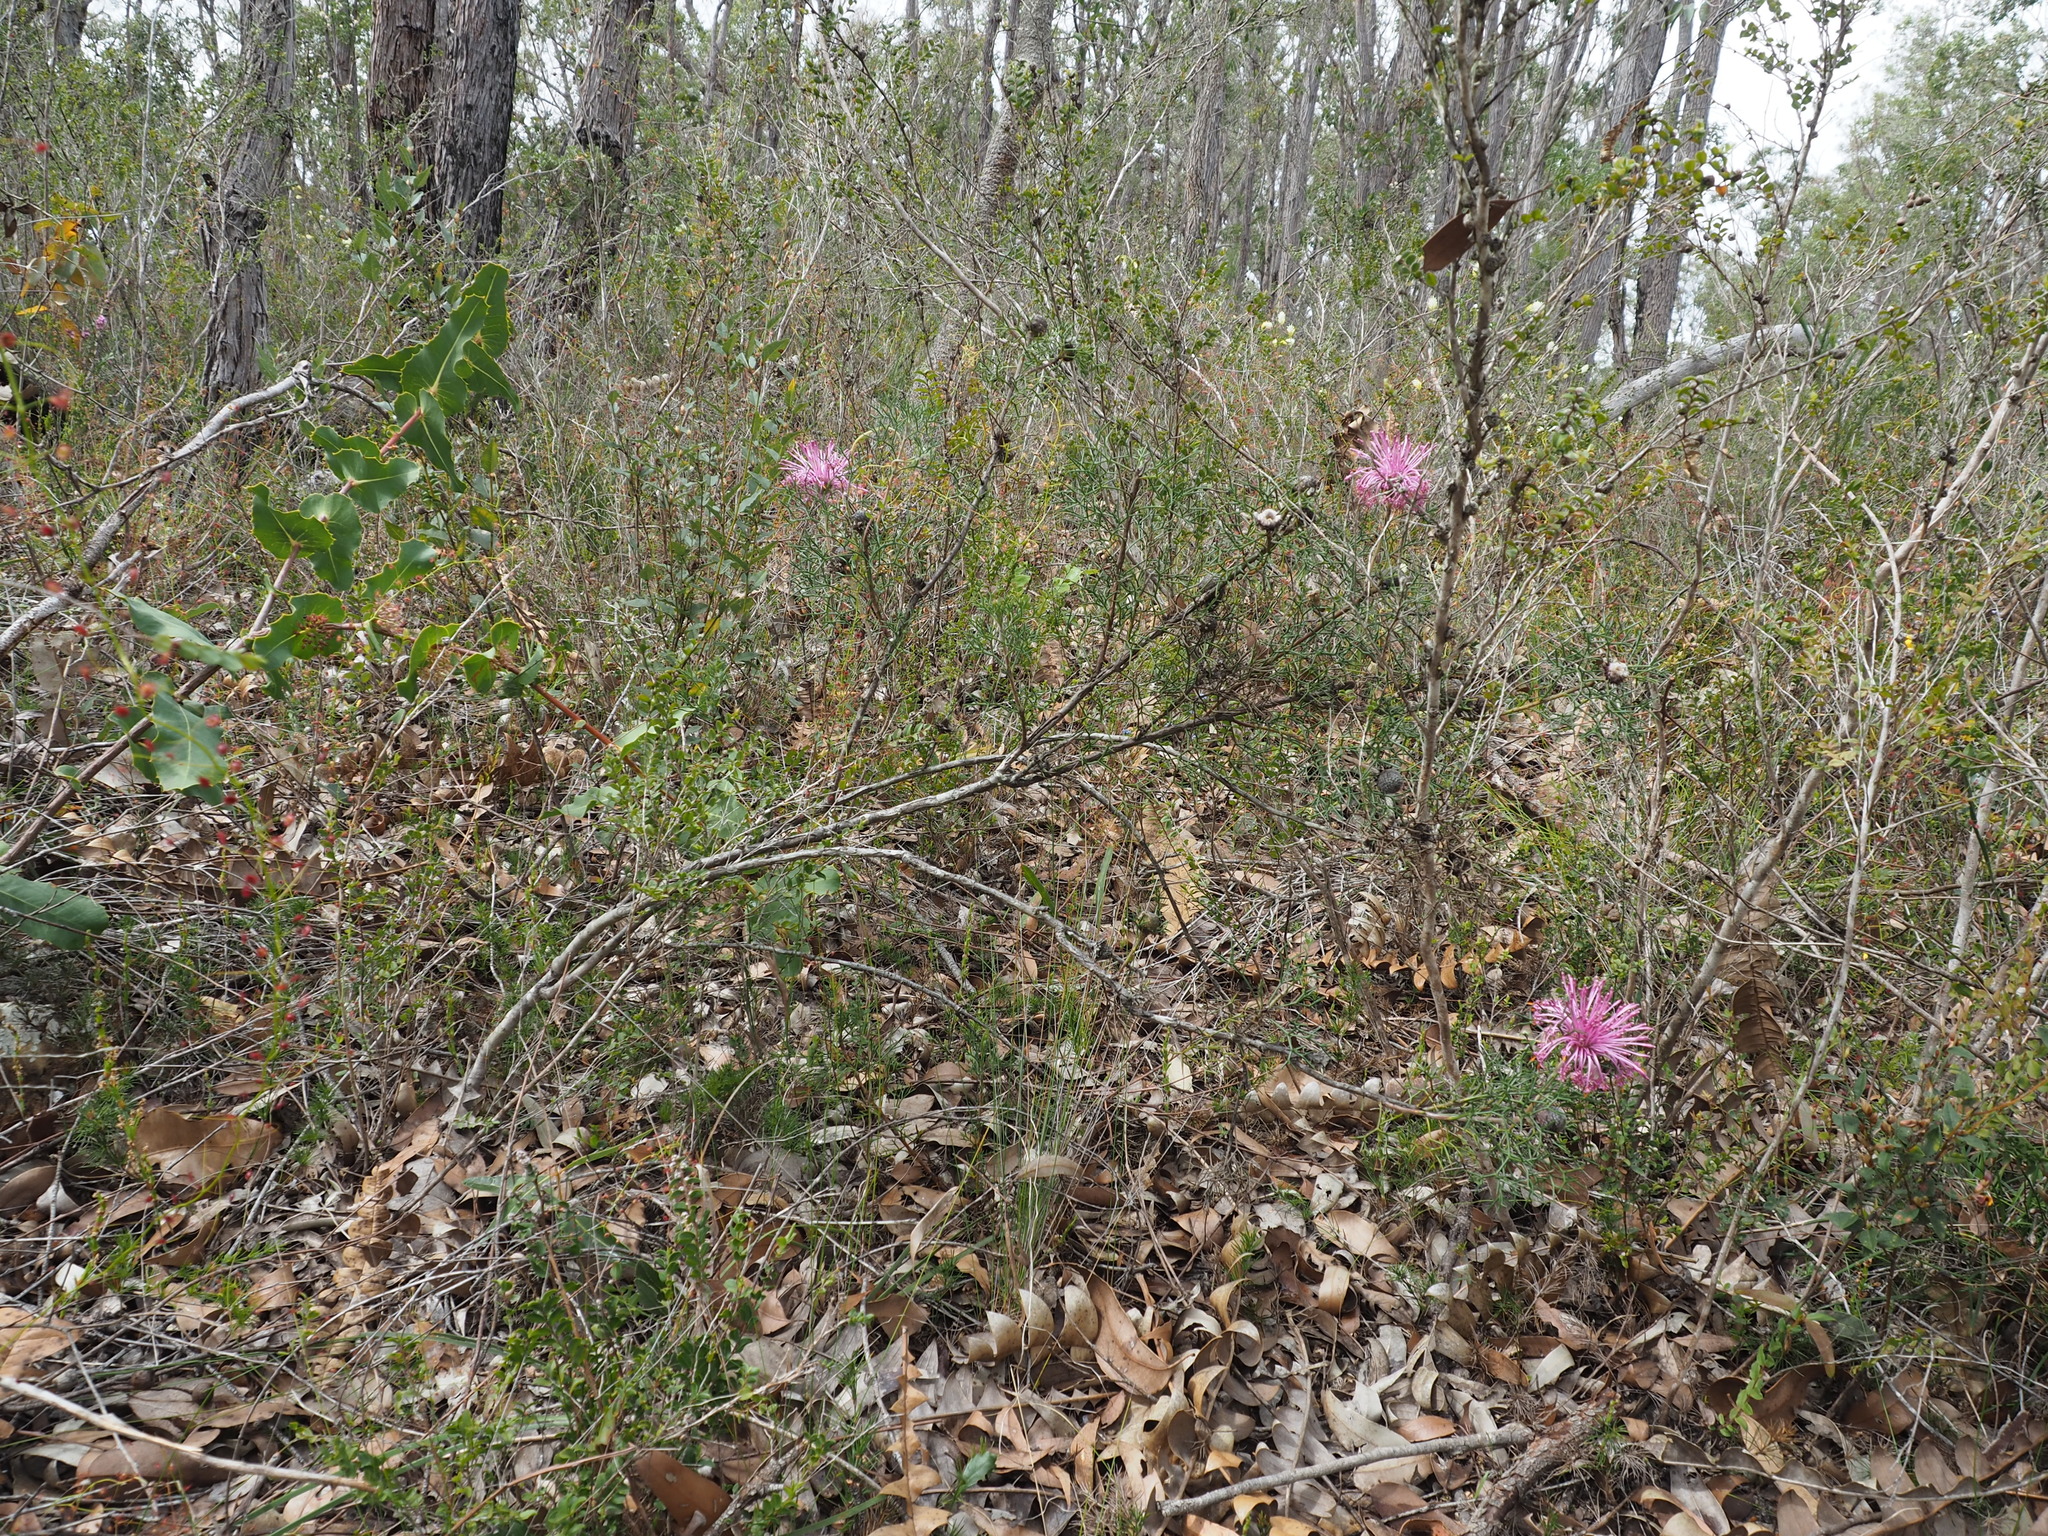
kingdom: Plantae
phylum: Tracheophyta
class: Magnoliopsida
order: Proteales
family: Proteaceae
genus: Isopogon
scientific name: Isopogon formosus
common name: Rose-coneflower
